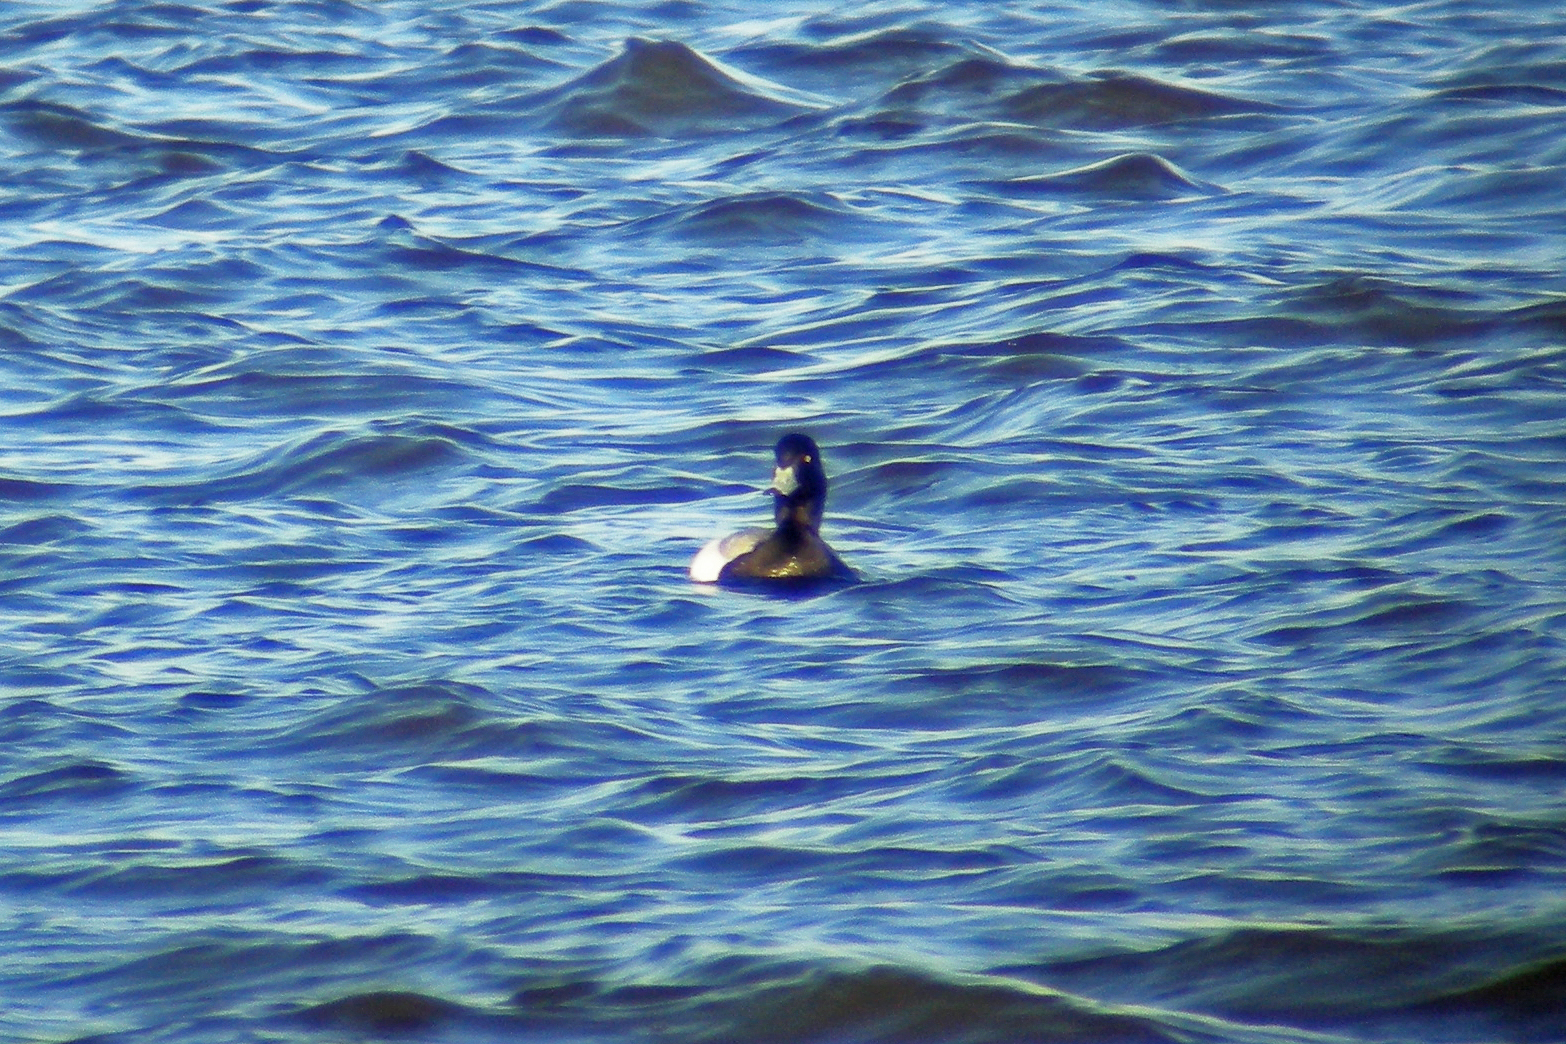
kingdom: Animalia
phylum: Chordata
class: Aves
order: Anseriformes
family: Anatidae
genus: Aythya
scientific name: Aythya marila
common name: Greater scaup
